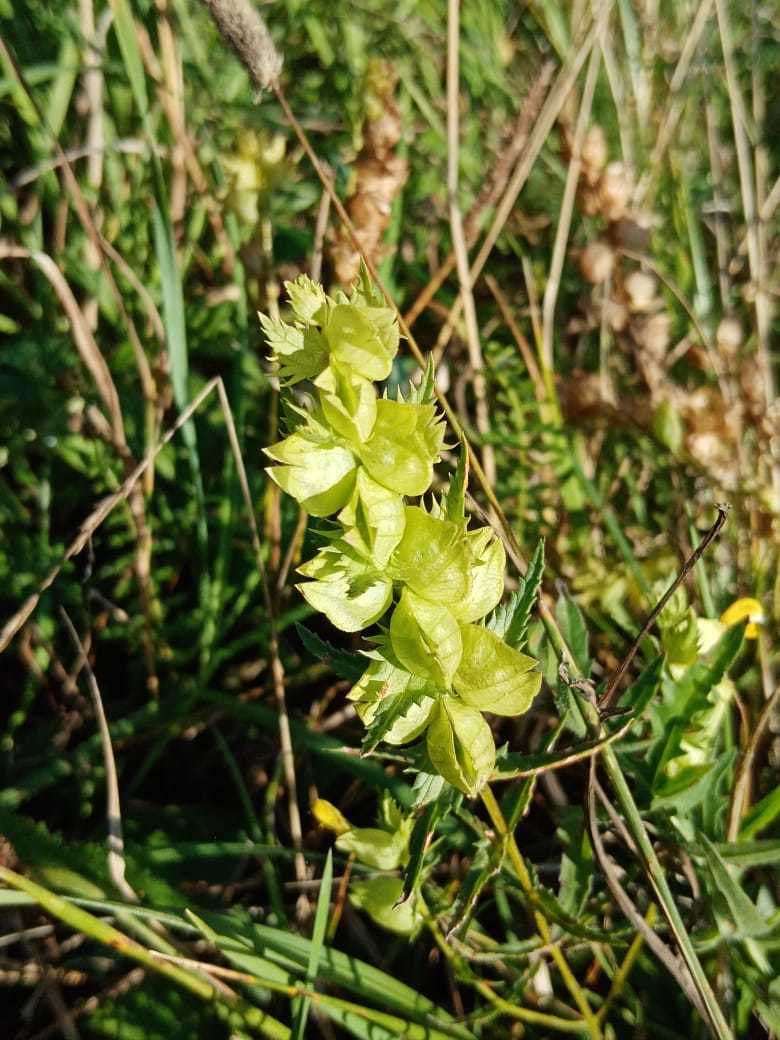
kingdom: Plantae
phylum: Tracheophyta
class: Magnoliopsida
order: Lamiales
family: Orobanchaceae
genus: Rhinanthus
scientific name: Rhinanthus serotinus
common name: Late-flowering yellow rattle
